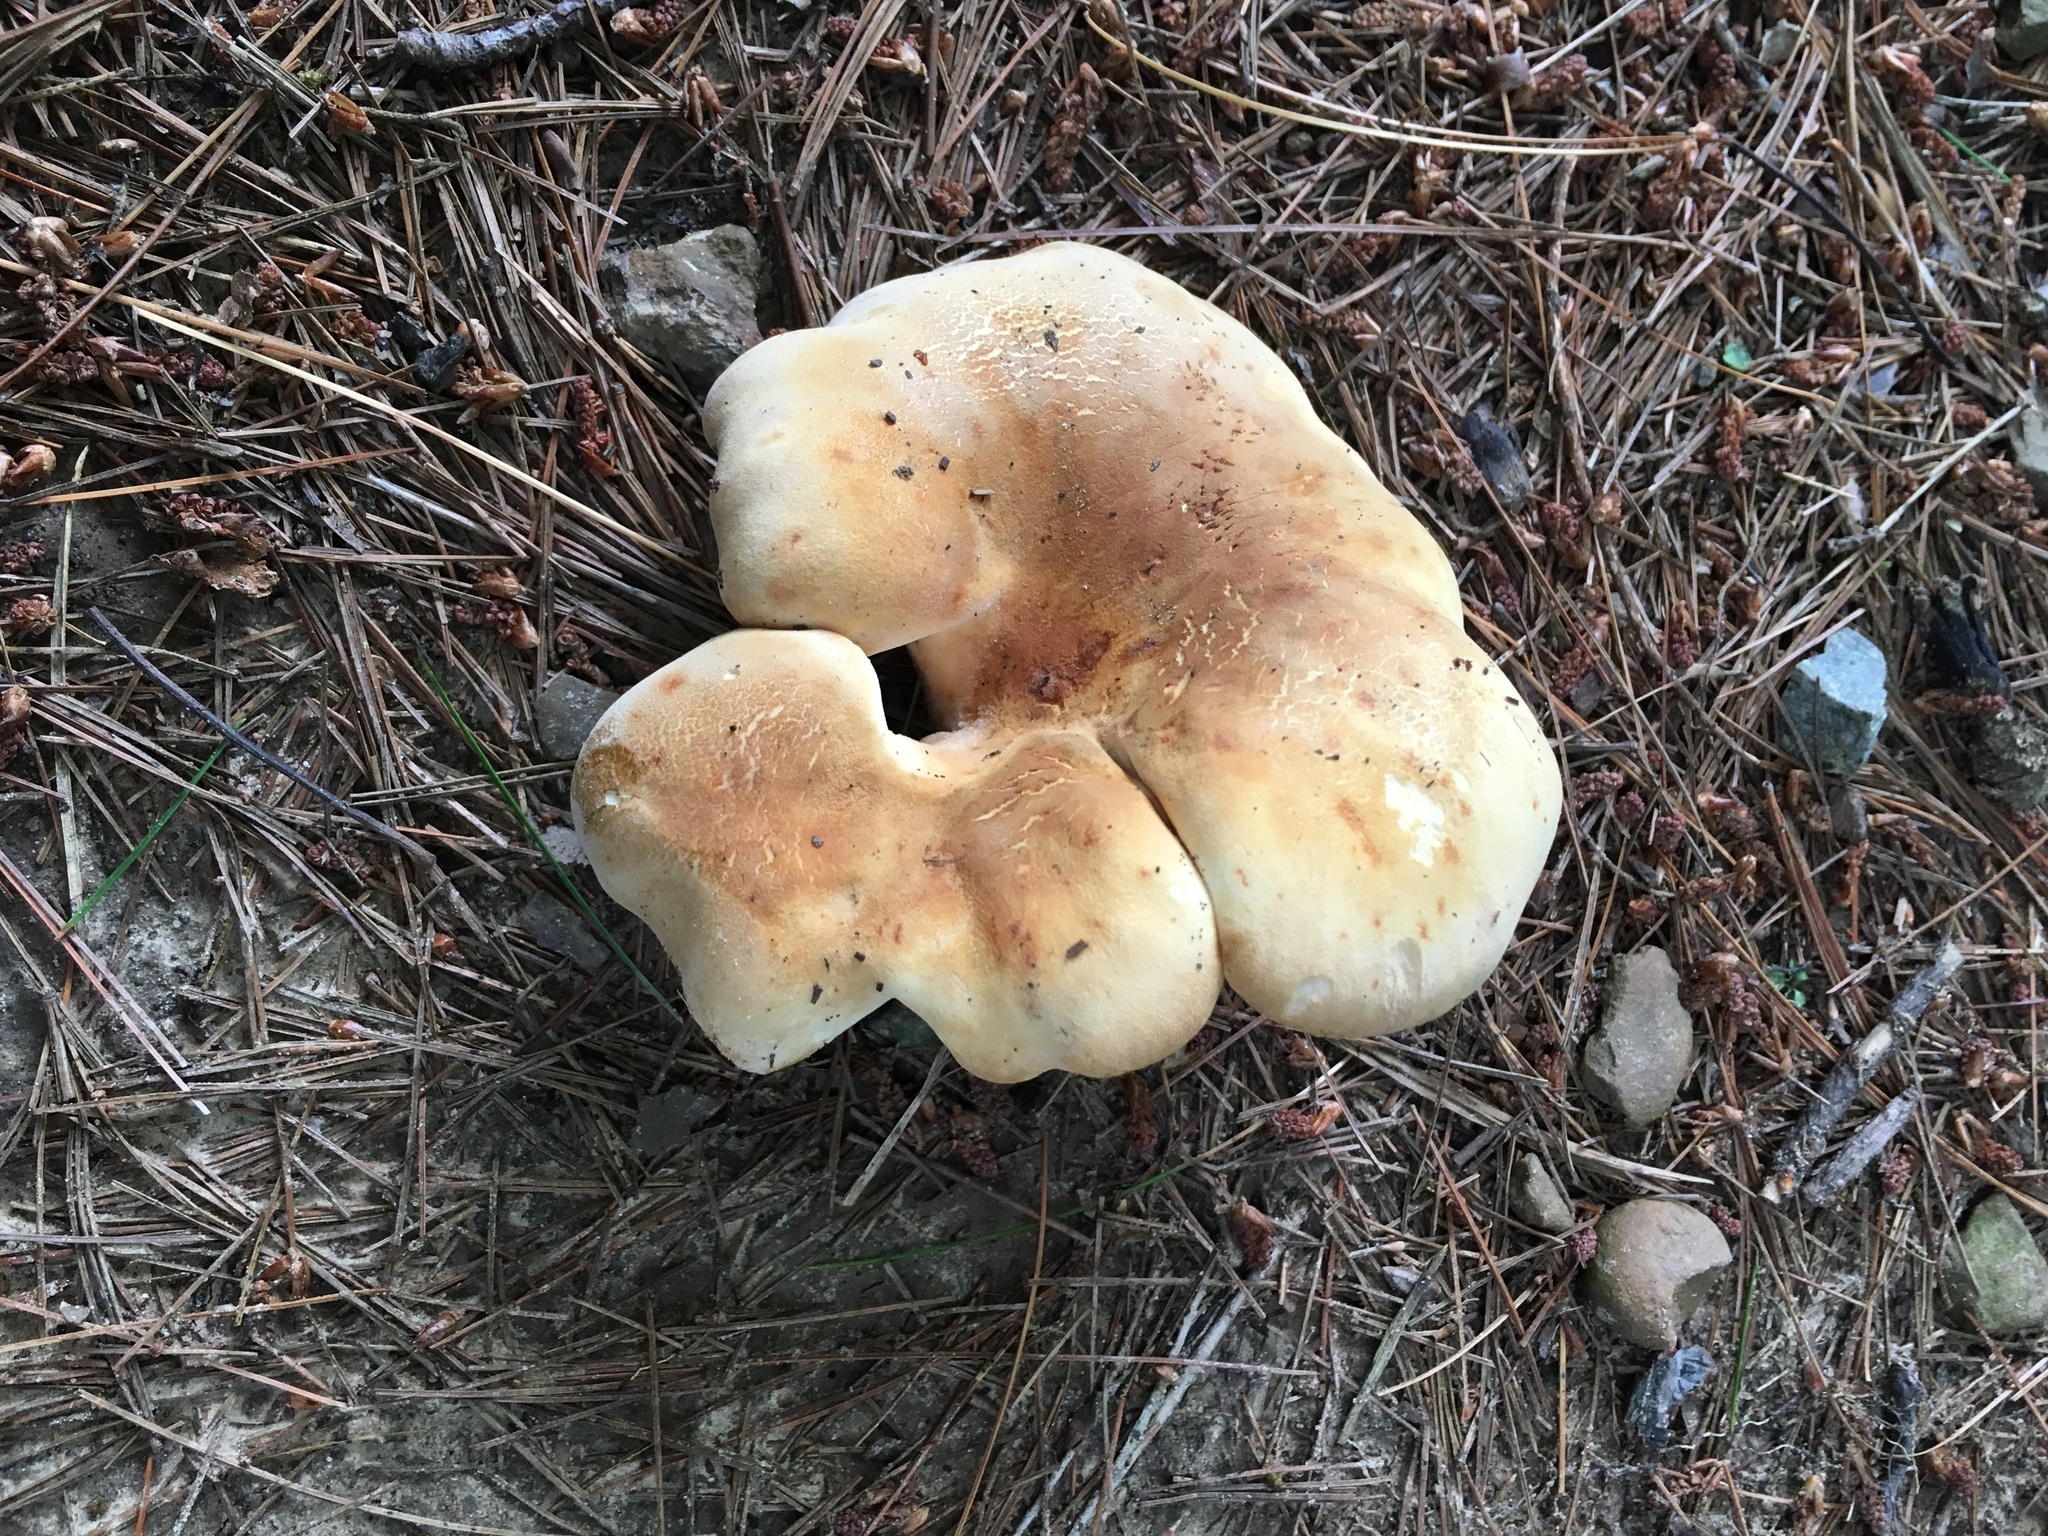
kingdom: Fungi
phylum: Basidiomycota
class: Agaricomycetes
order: Boletales
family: Tapinellaceae
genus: Tapinella
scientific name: Tapinella atrotomentosa
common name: Velvet rollrim
